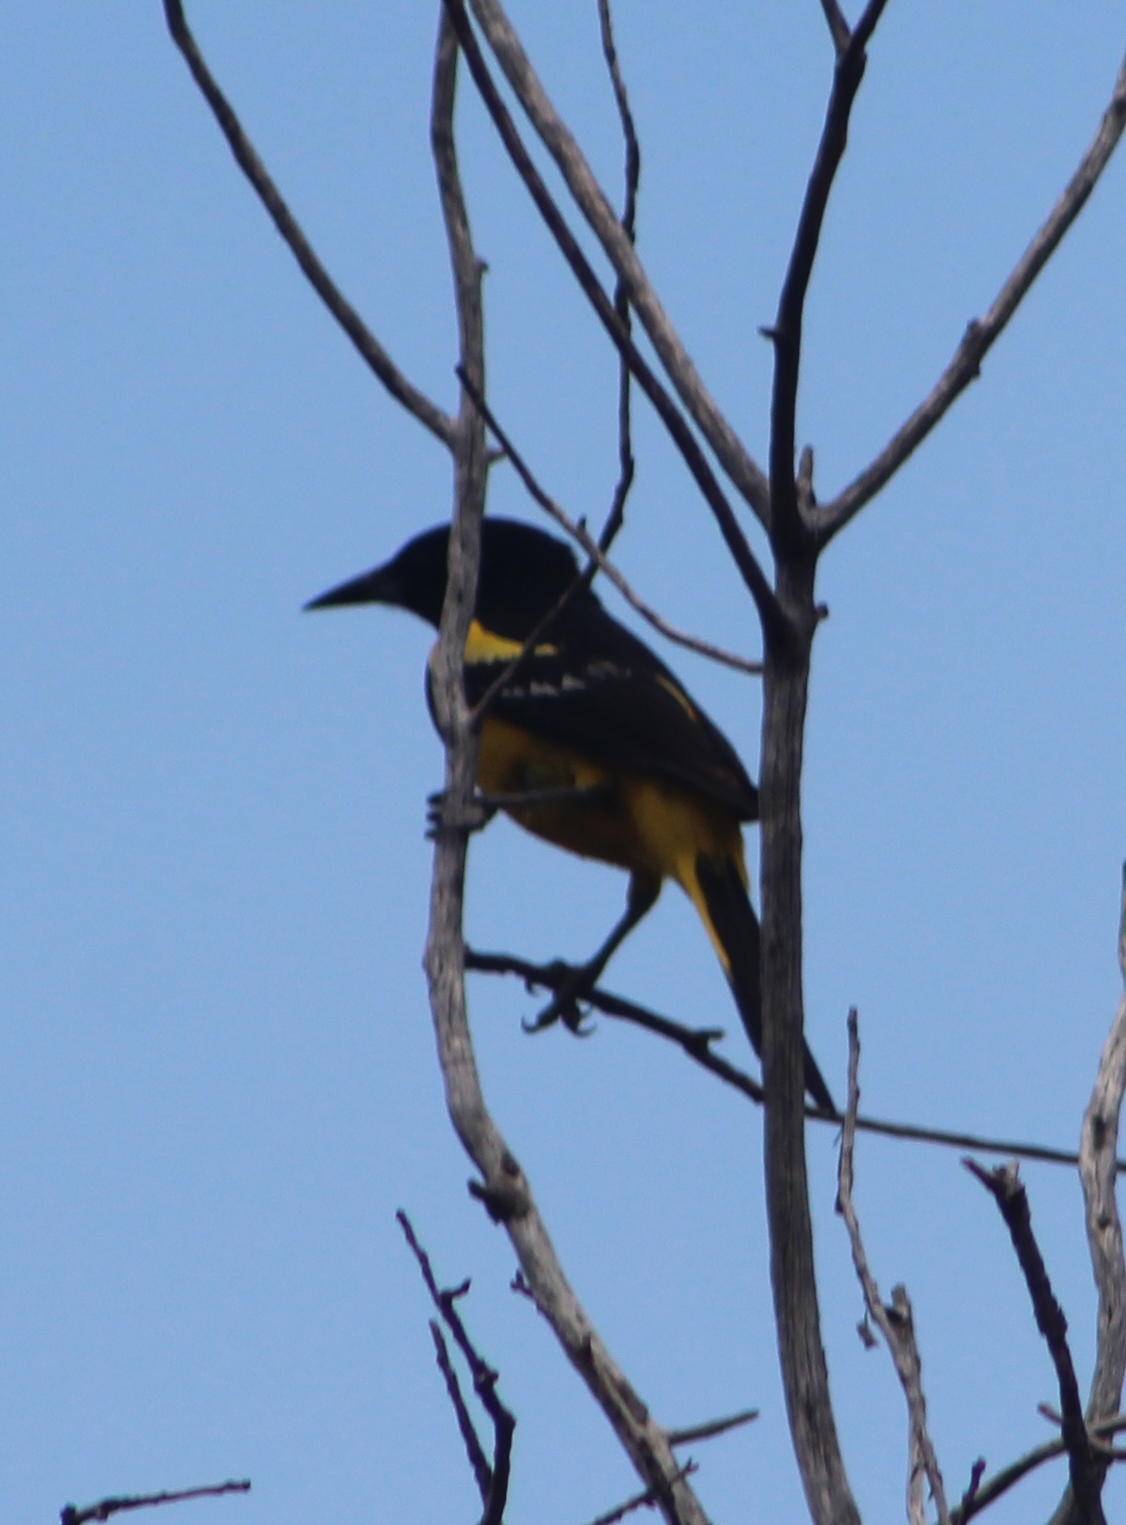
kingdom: Animalia
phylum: Chordata
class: Aves
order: Passeriformes
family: Icteridae
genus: Icterus
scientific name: Icterus parisorum
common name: Scott's oriole
